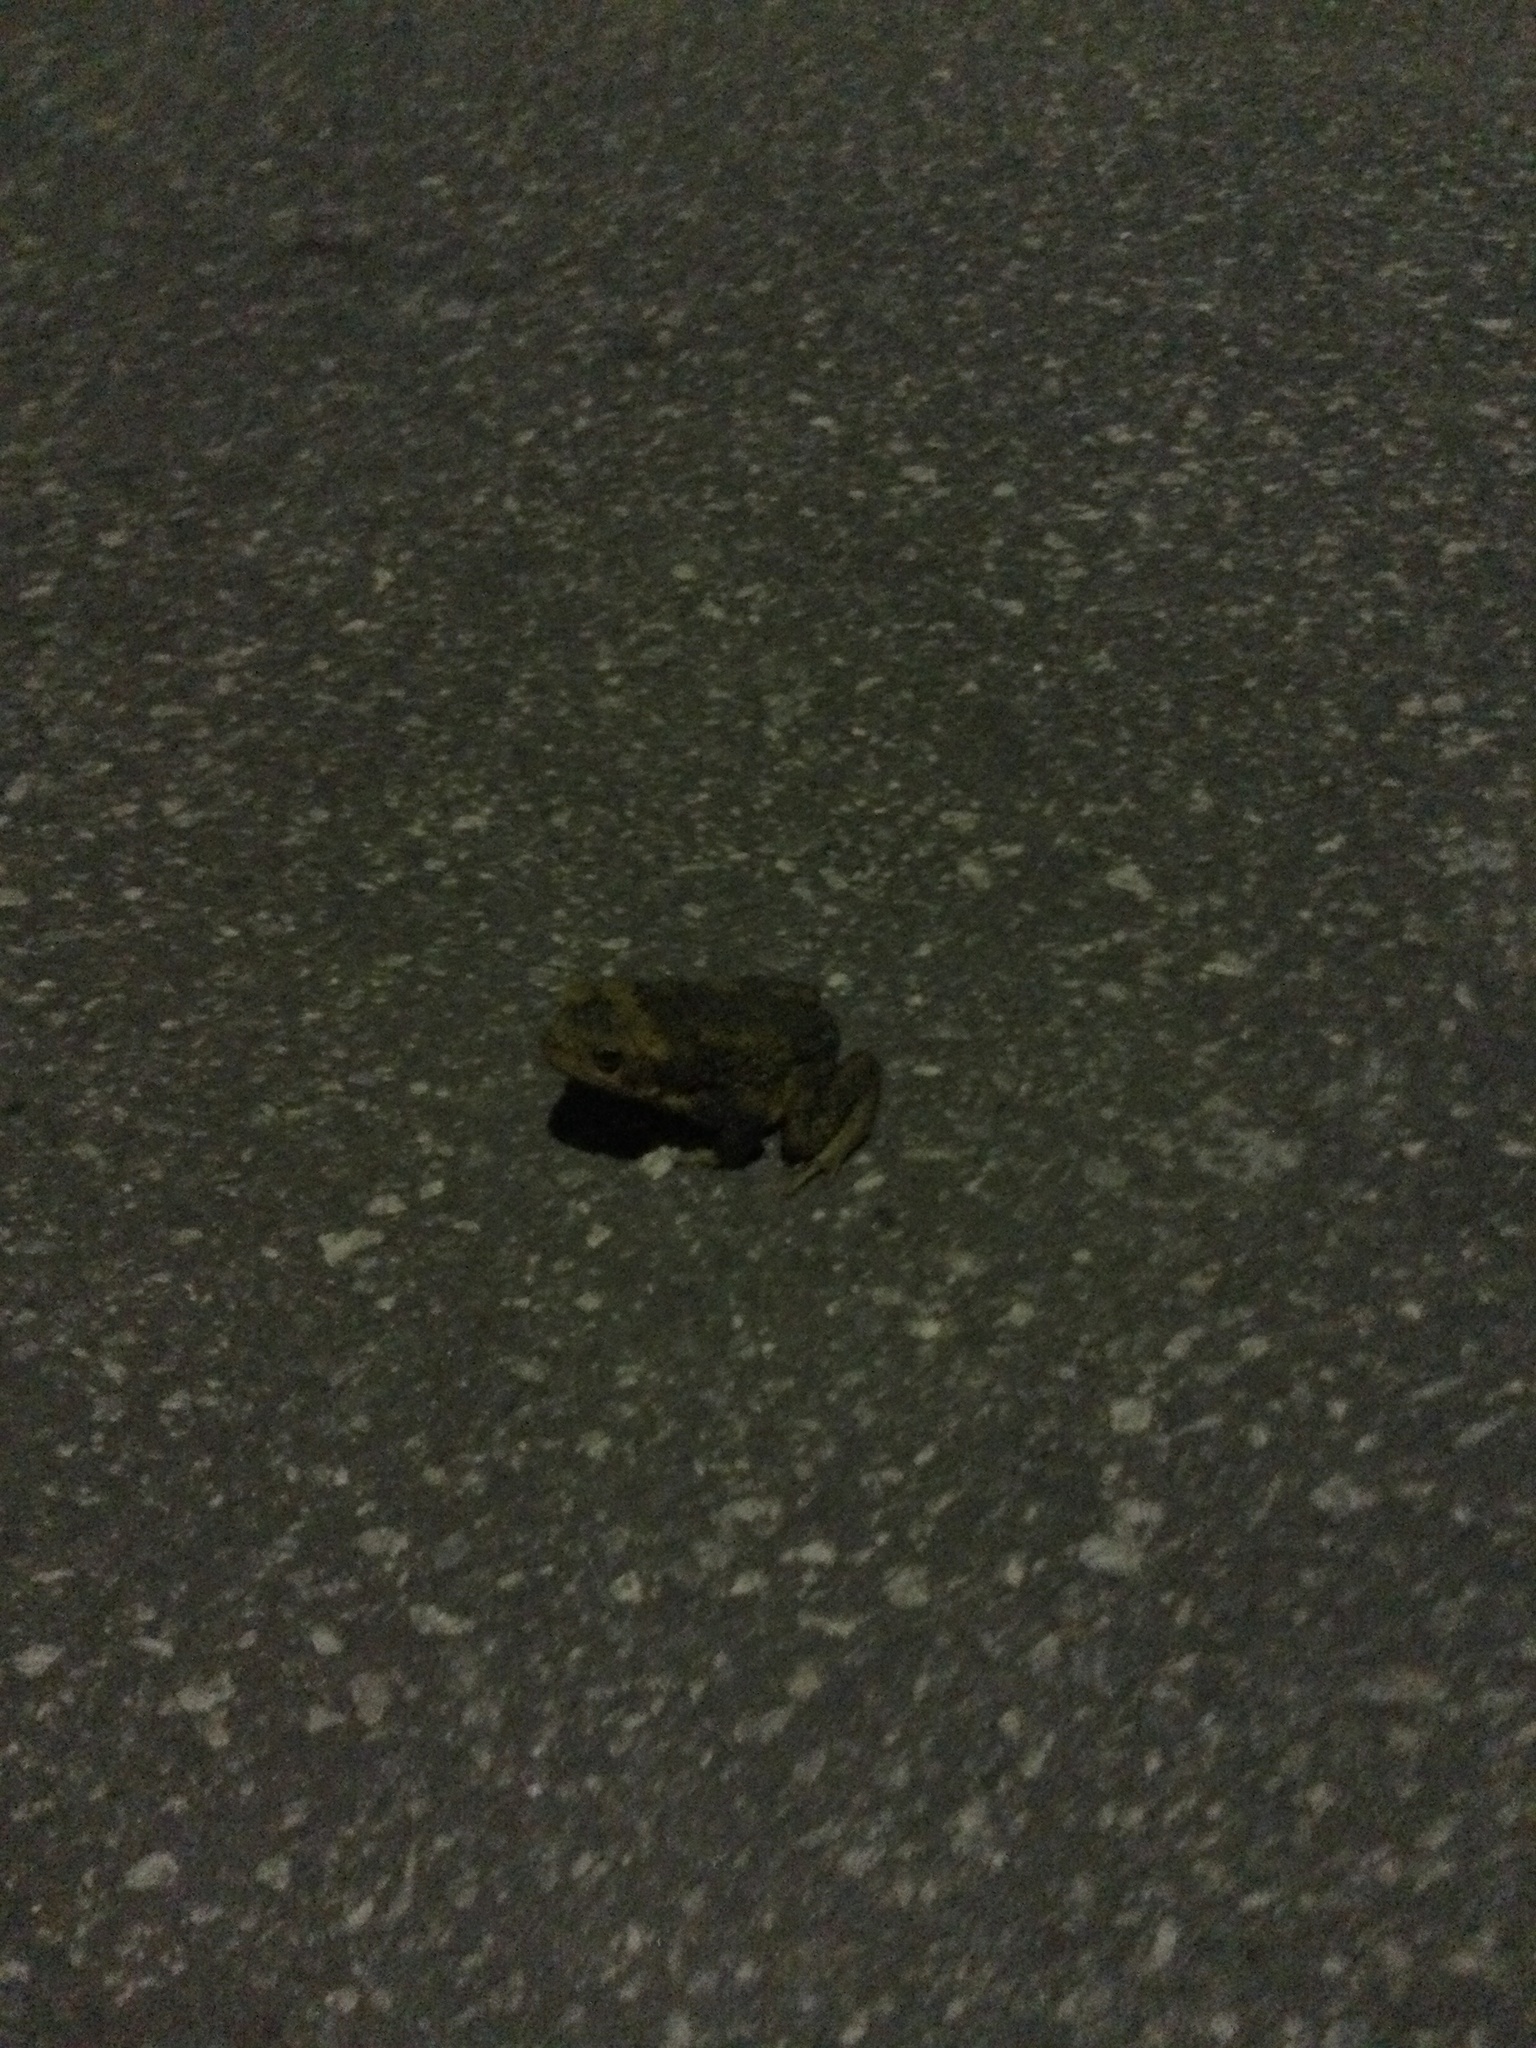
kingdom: Animalia
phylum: Chordata
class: Amphibia
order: Anura
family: Bufonidae
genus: Rhinella
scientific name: Rhinella marina
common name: Cane toad
